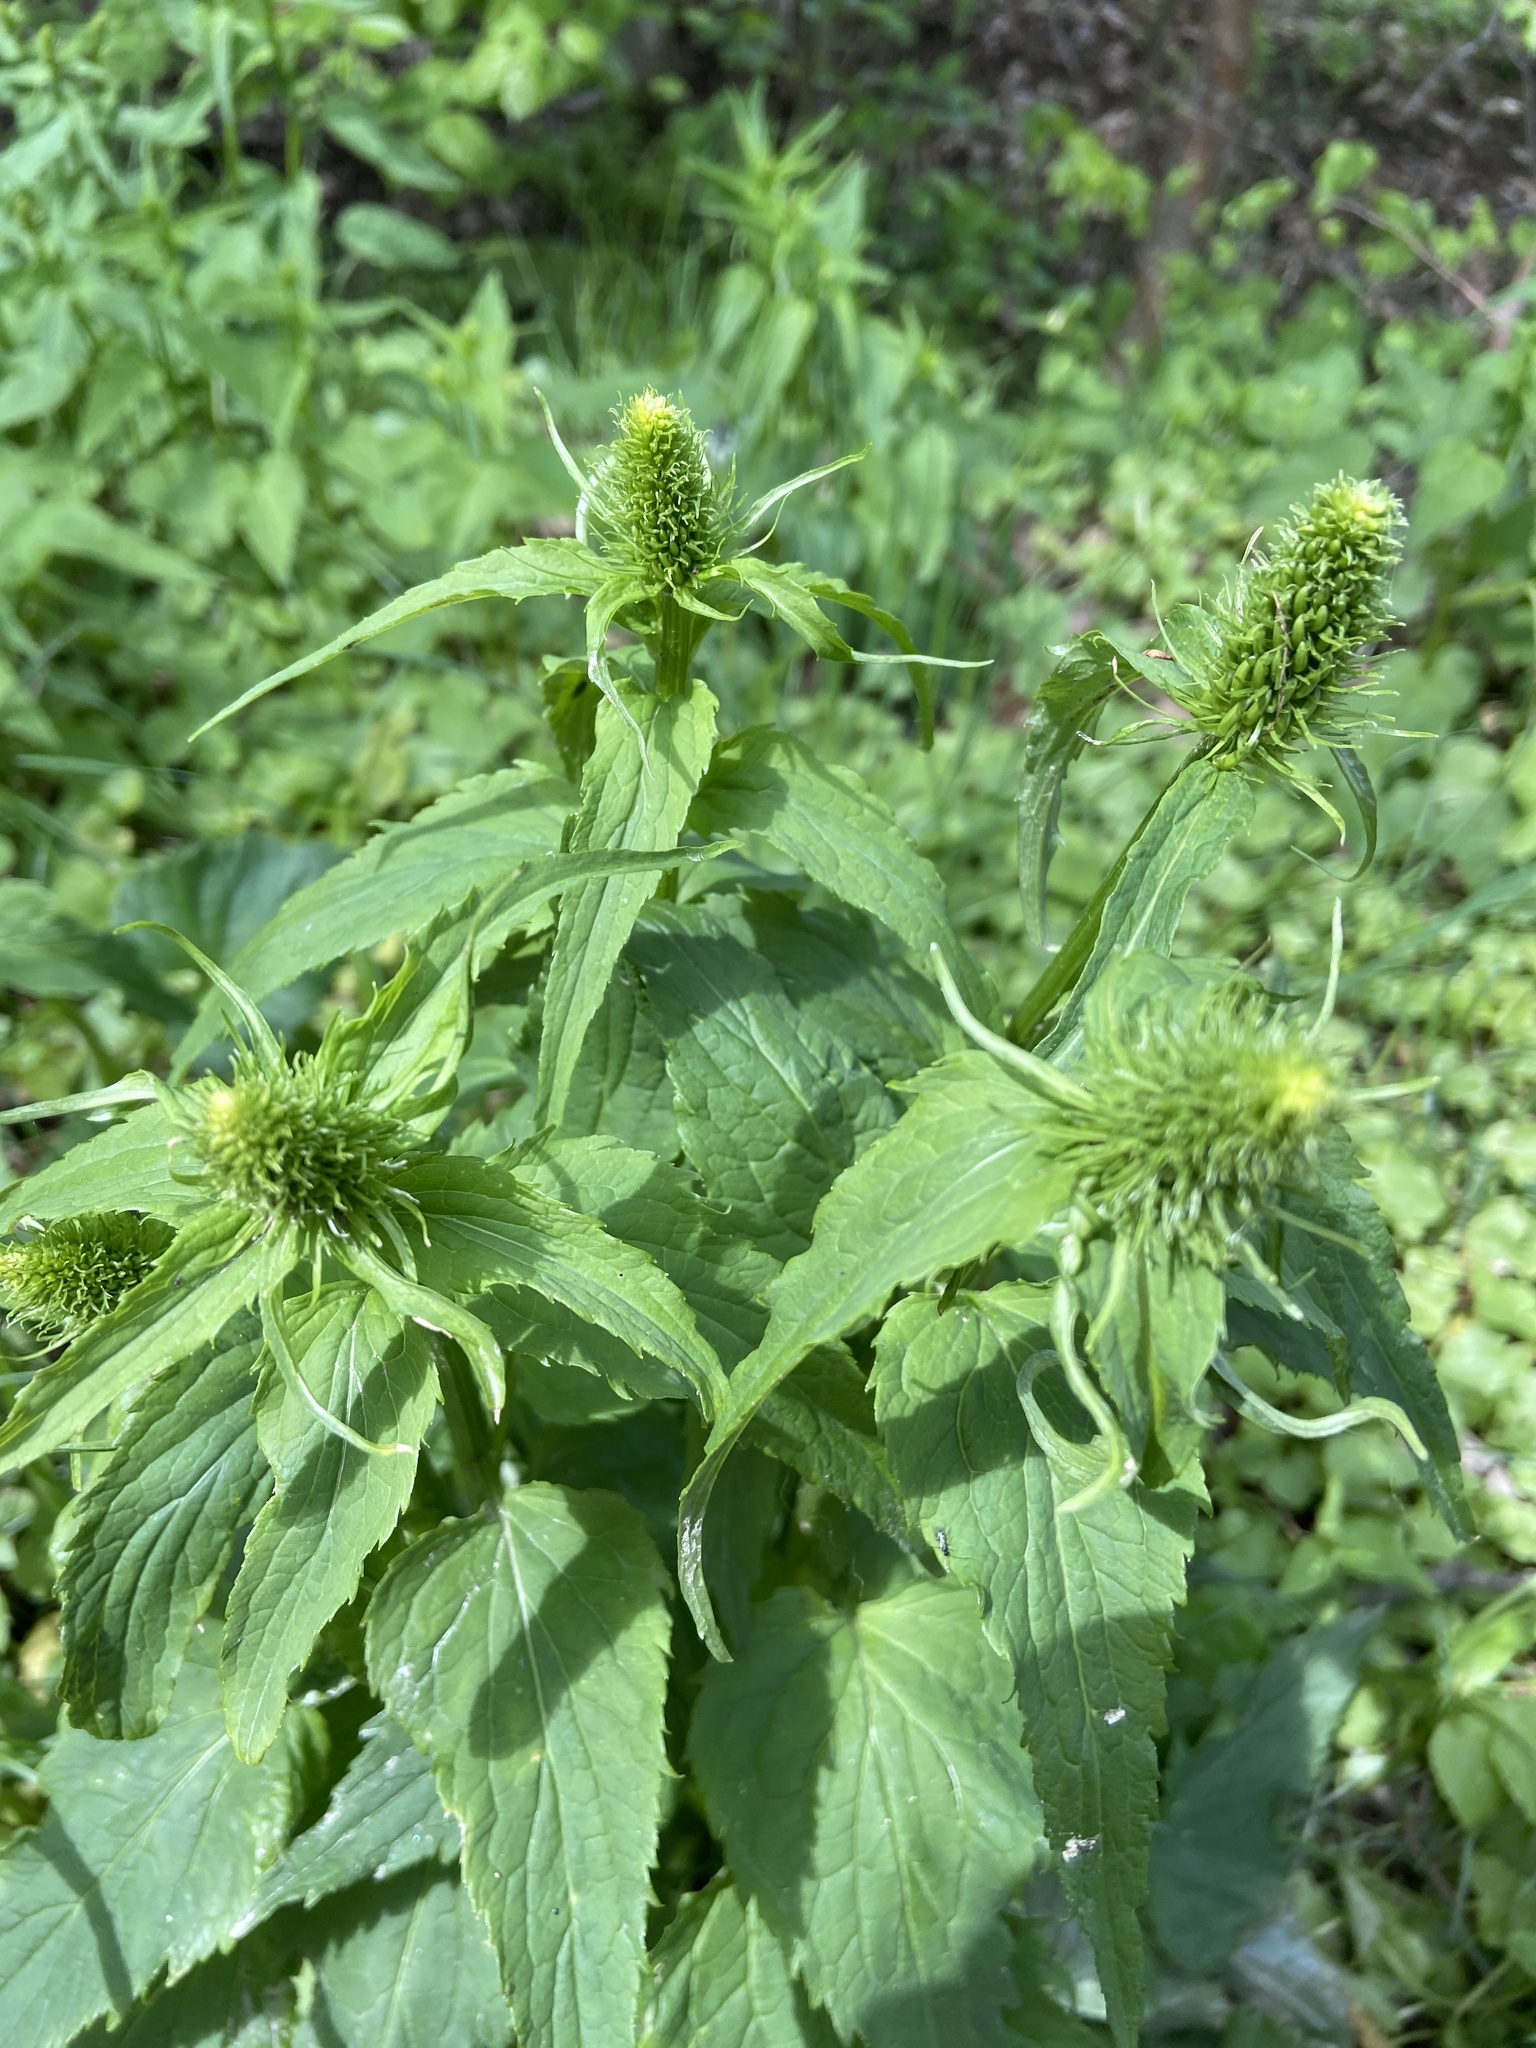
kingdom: Plantae
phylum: Tracheophyta
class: Magnoliopsida
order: Asterales
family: Campanulaceae
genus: Phyteuma
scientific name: Phyteuma spicatum
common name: Spiked rampion
